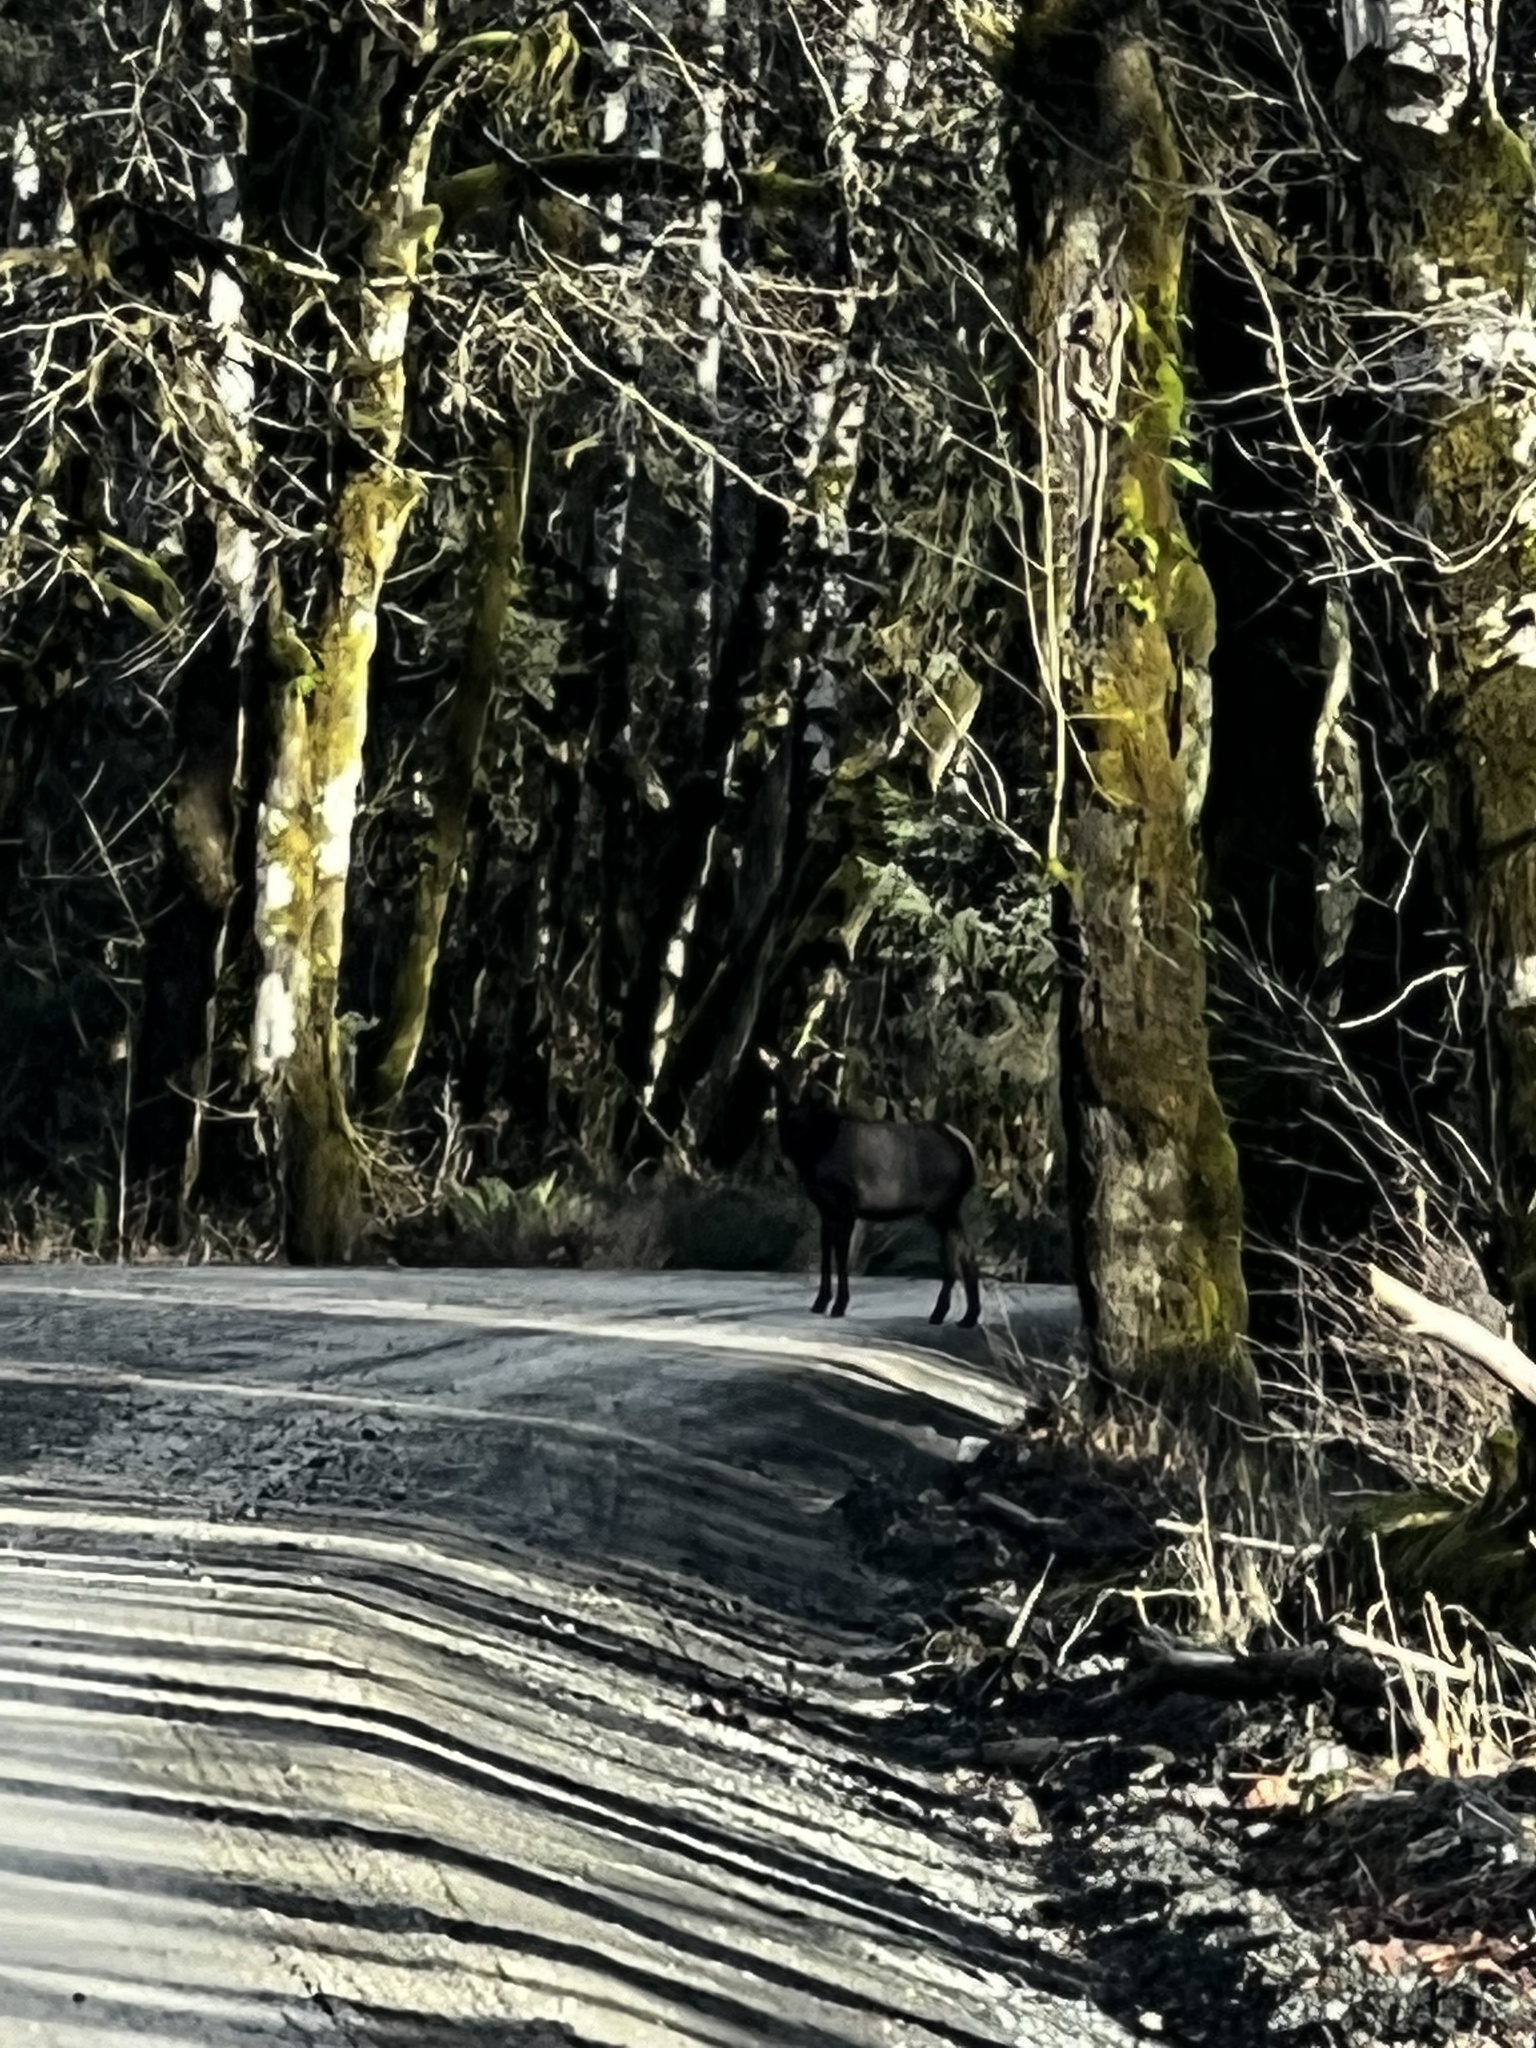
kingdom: Animalia
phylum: Chordata
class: Mammalia
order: Artiodactyla
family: Cervidae
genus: Cervus
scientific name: Cervus elaphus
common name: Red deer
